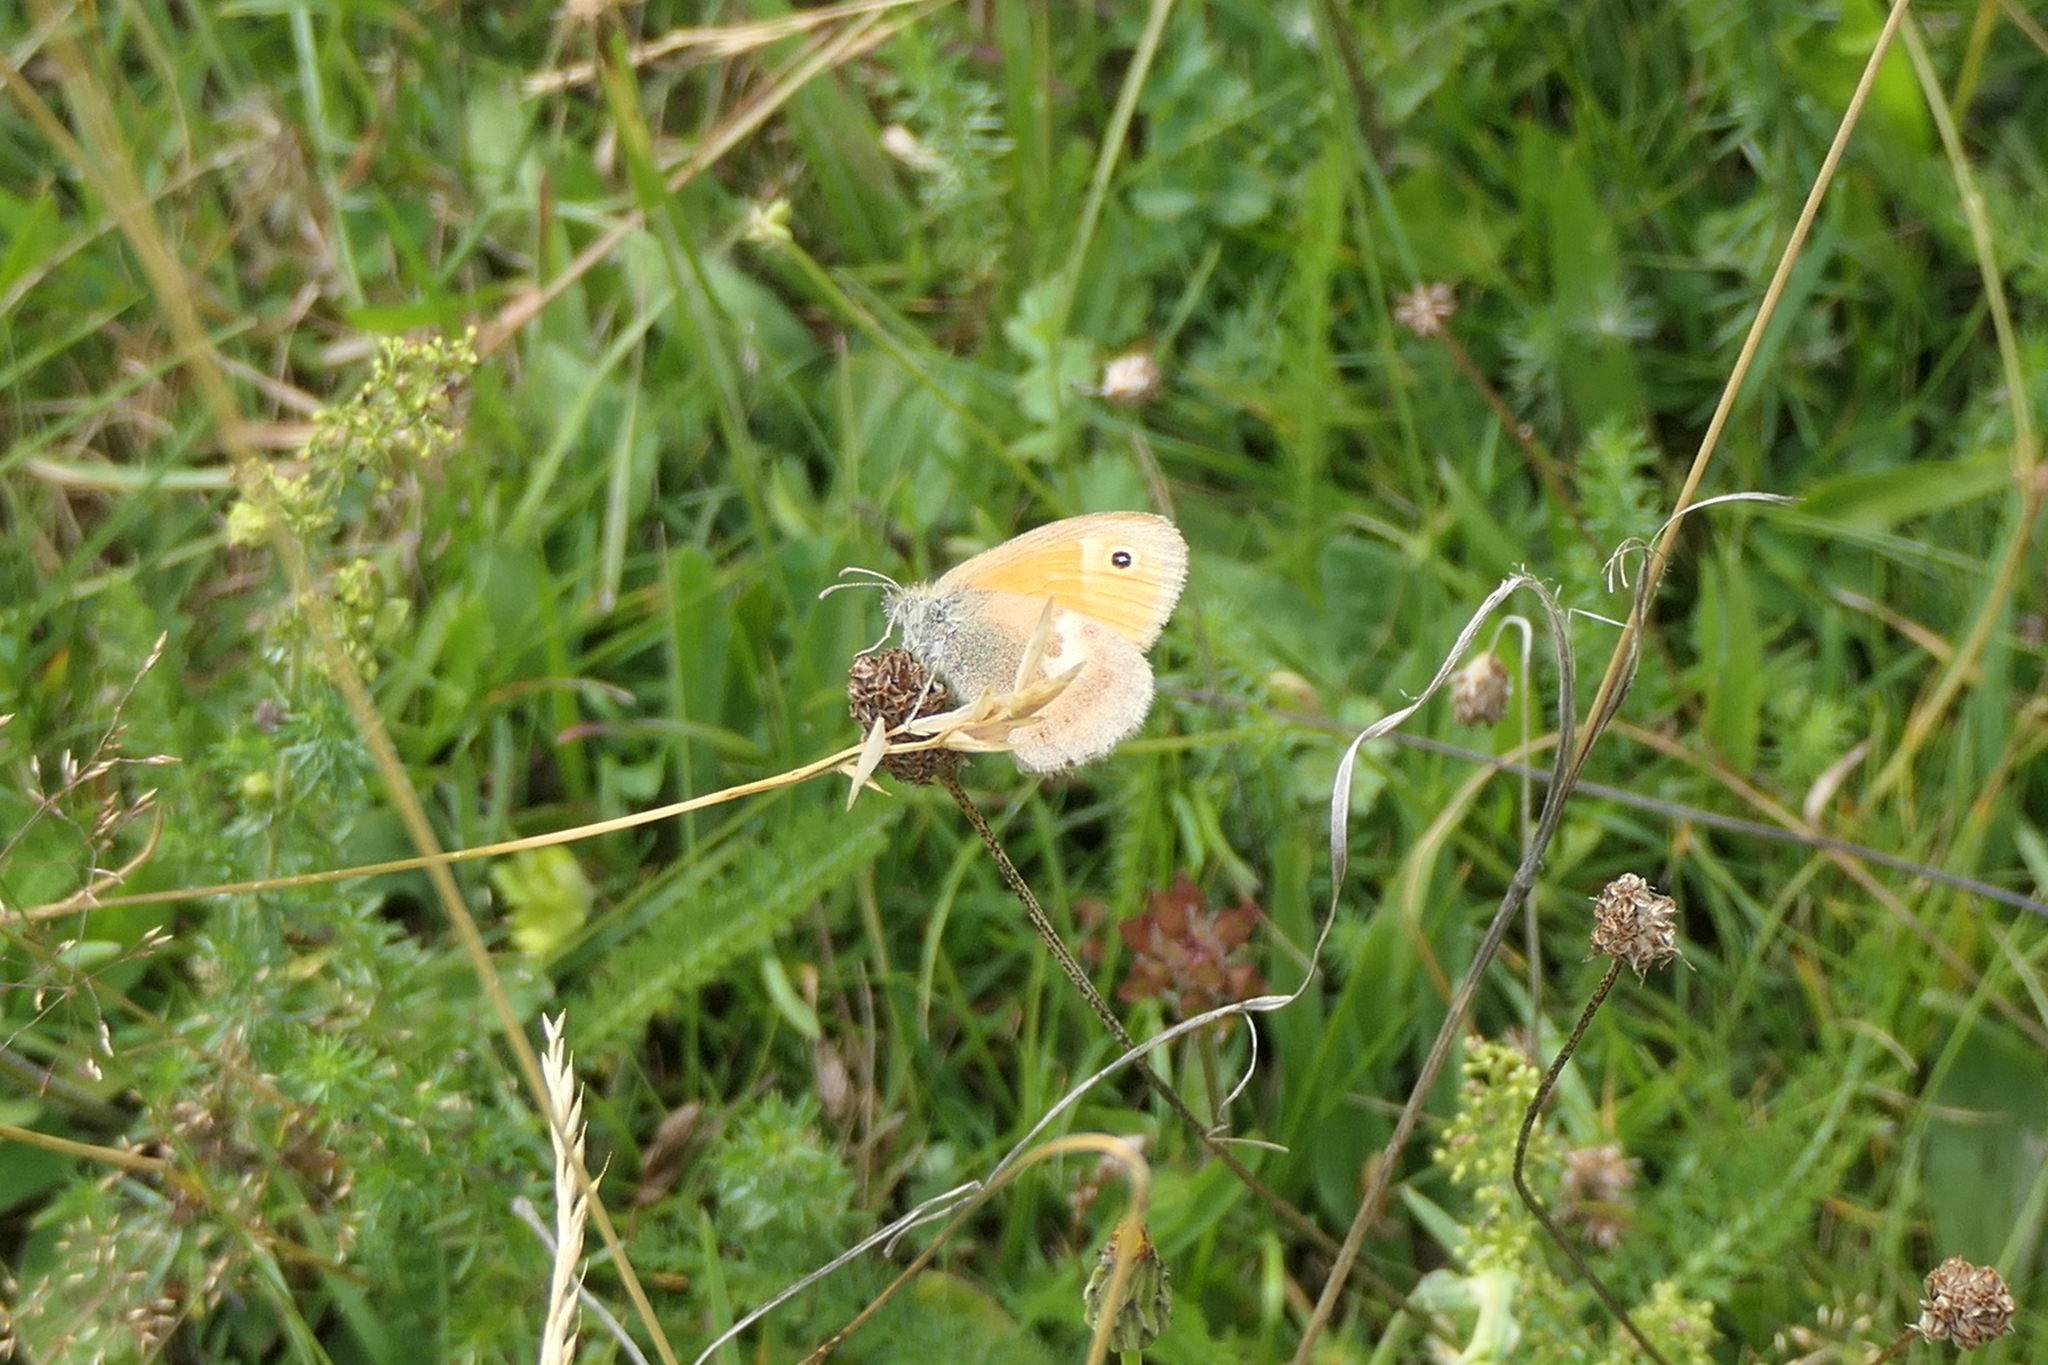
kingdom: Animalia
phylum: Arthropoda
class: Insecta
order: Lepidoptera
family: Nymphalidae
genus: Coenonympha
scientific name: Coenonympha pamphilus
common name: Small heath
